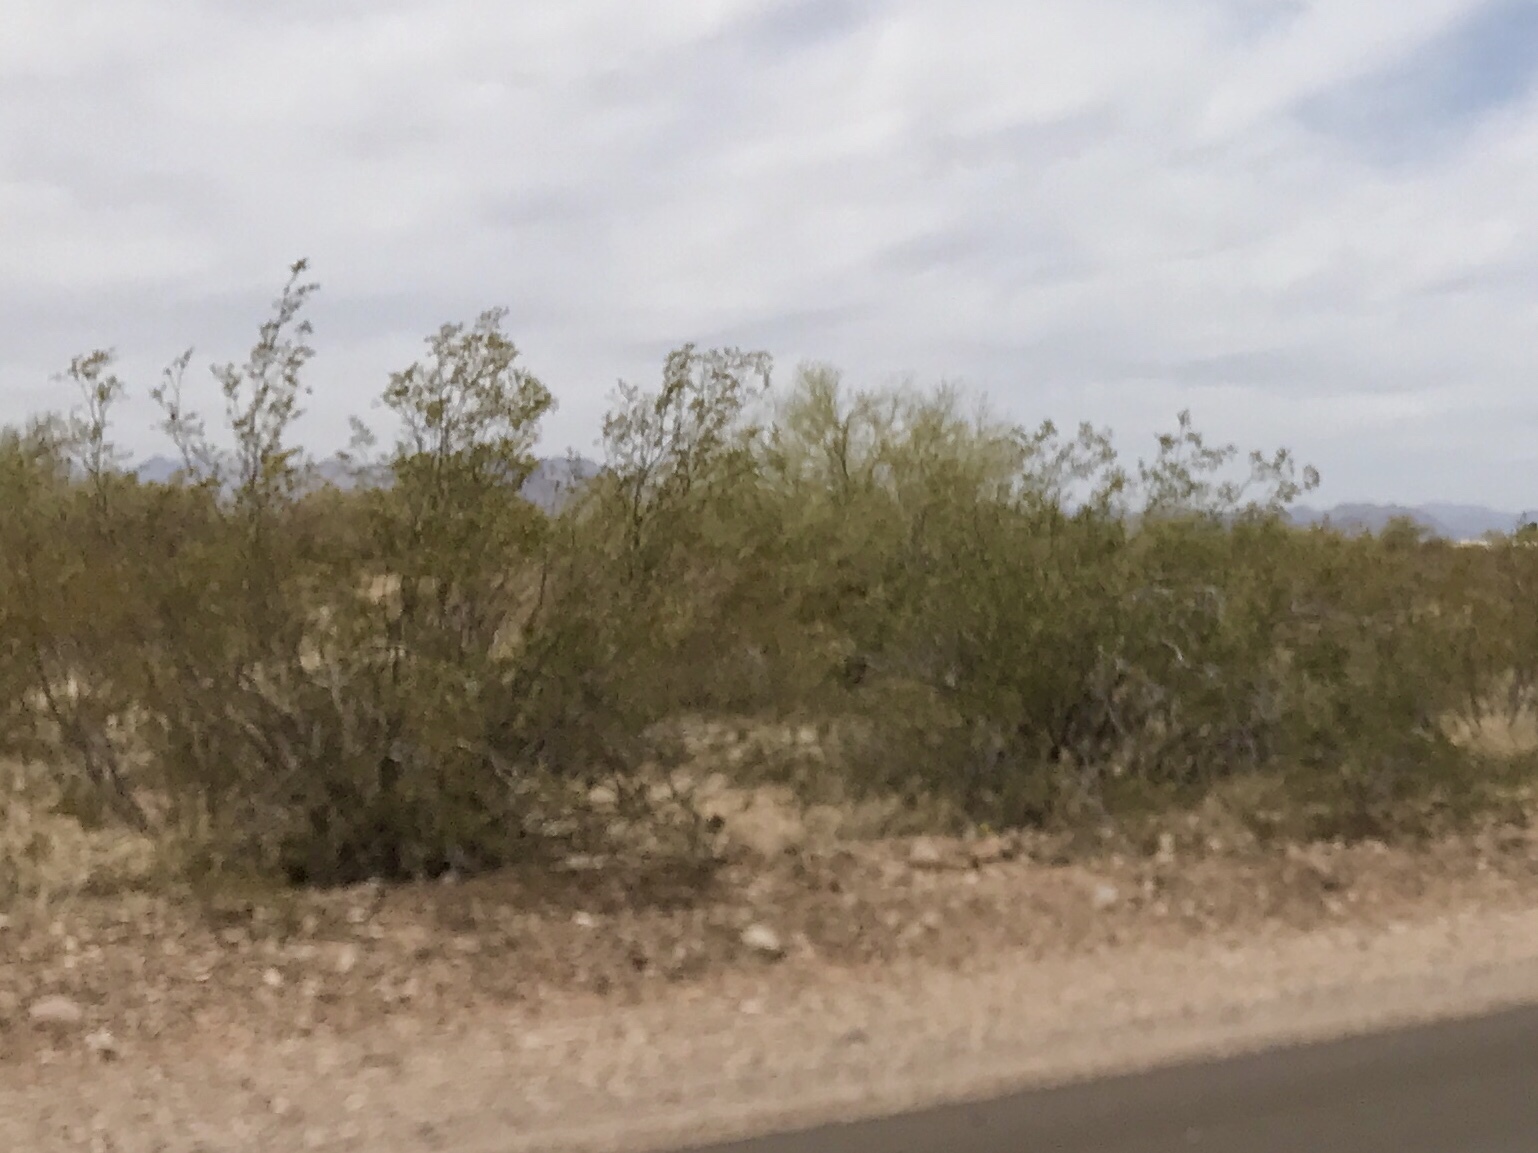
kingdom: Plantae
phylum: Tracheophyta
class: Magnoliopsida
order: Zygophyllales
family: Zygophyllaceae
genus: Larrea
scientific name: Larrea tridentata
